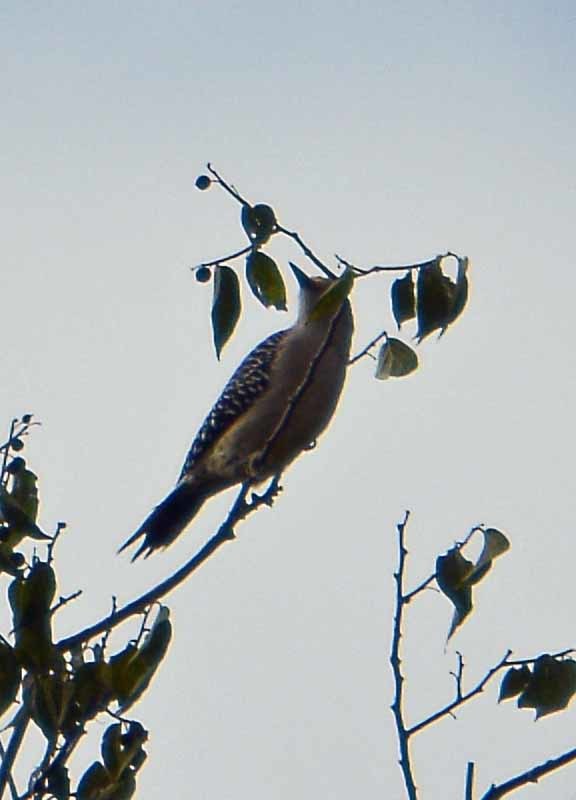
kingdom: Animalia
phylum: Chordata
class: Aves
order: Piciformes
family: Picidae
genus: Melanerpes
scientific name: Melanerpes aurifrons
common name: Golden-fronted woodpecker
